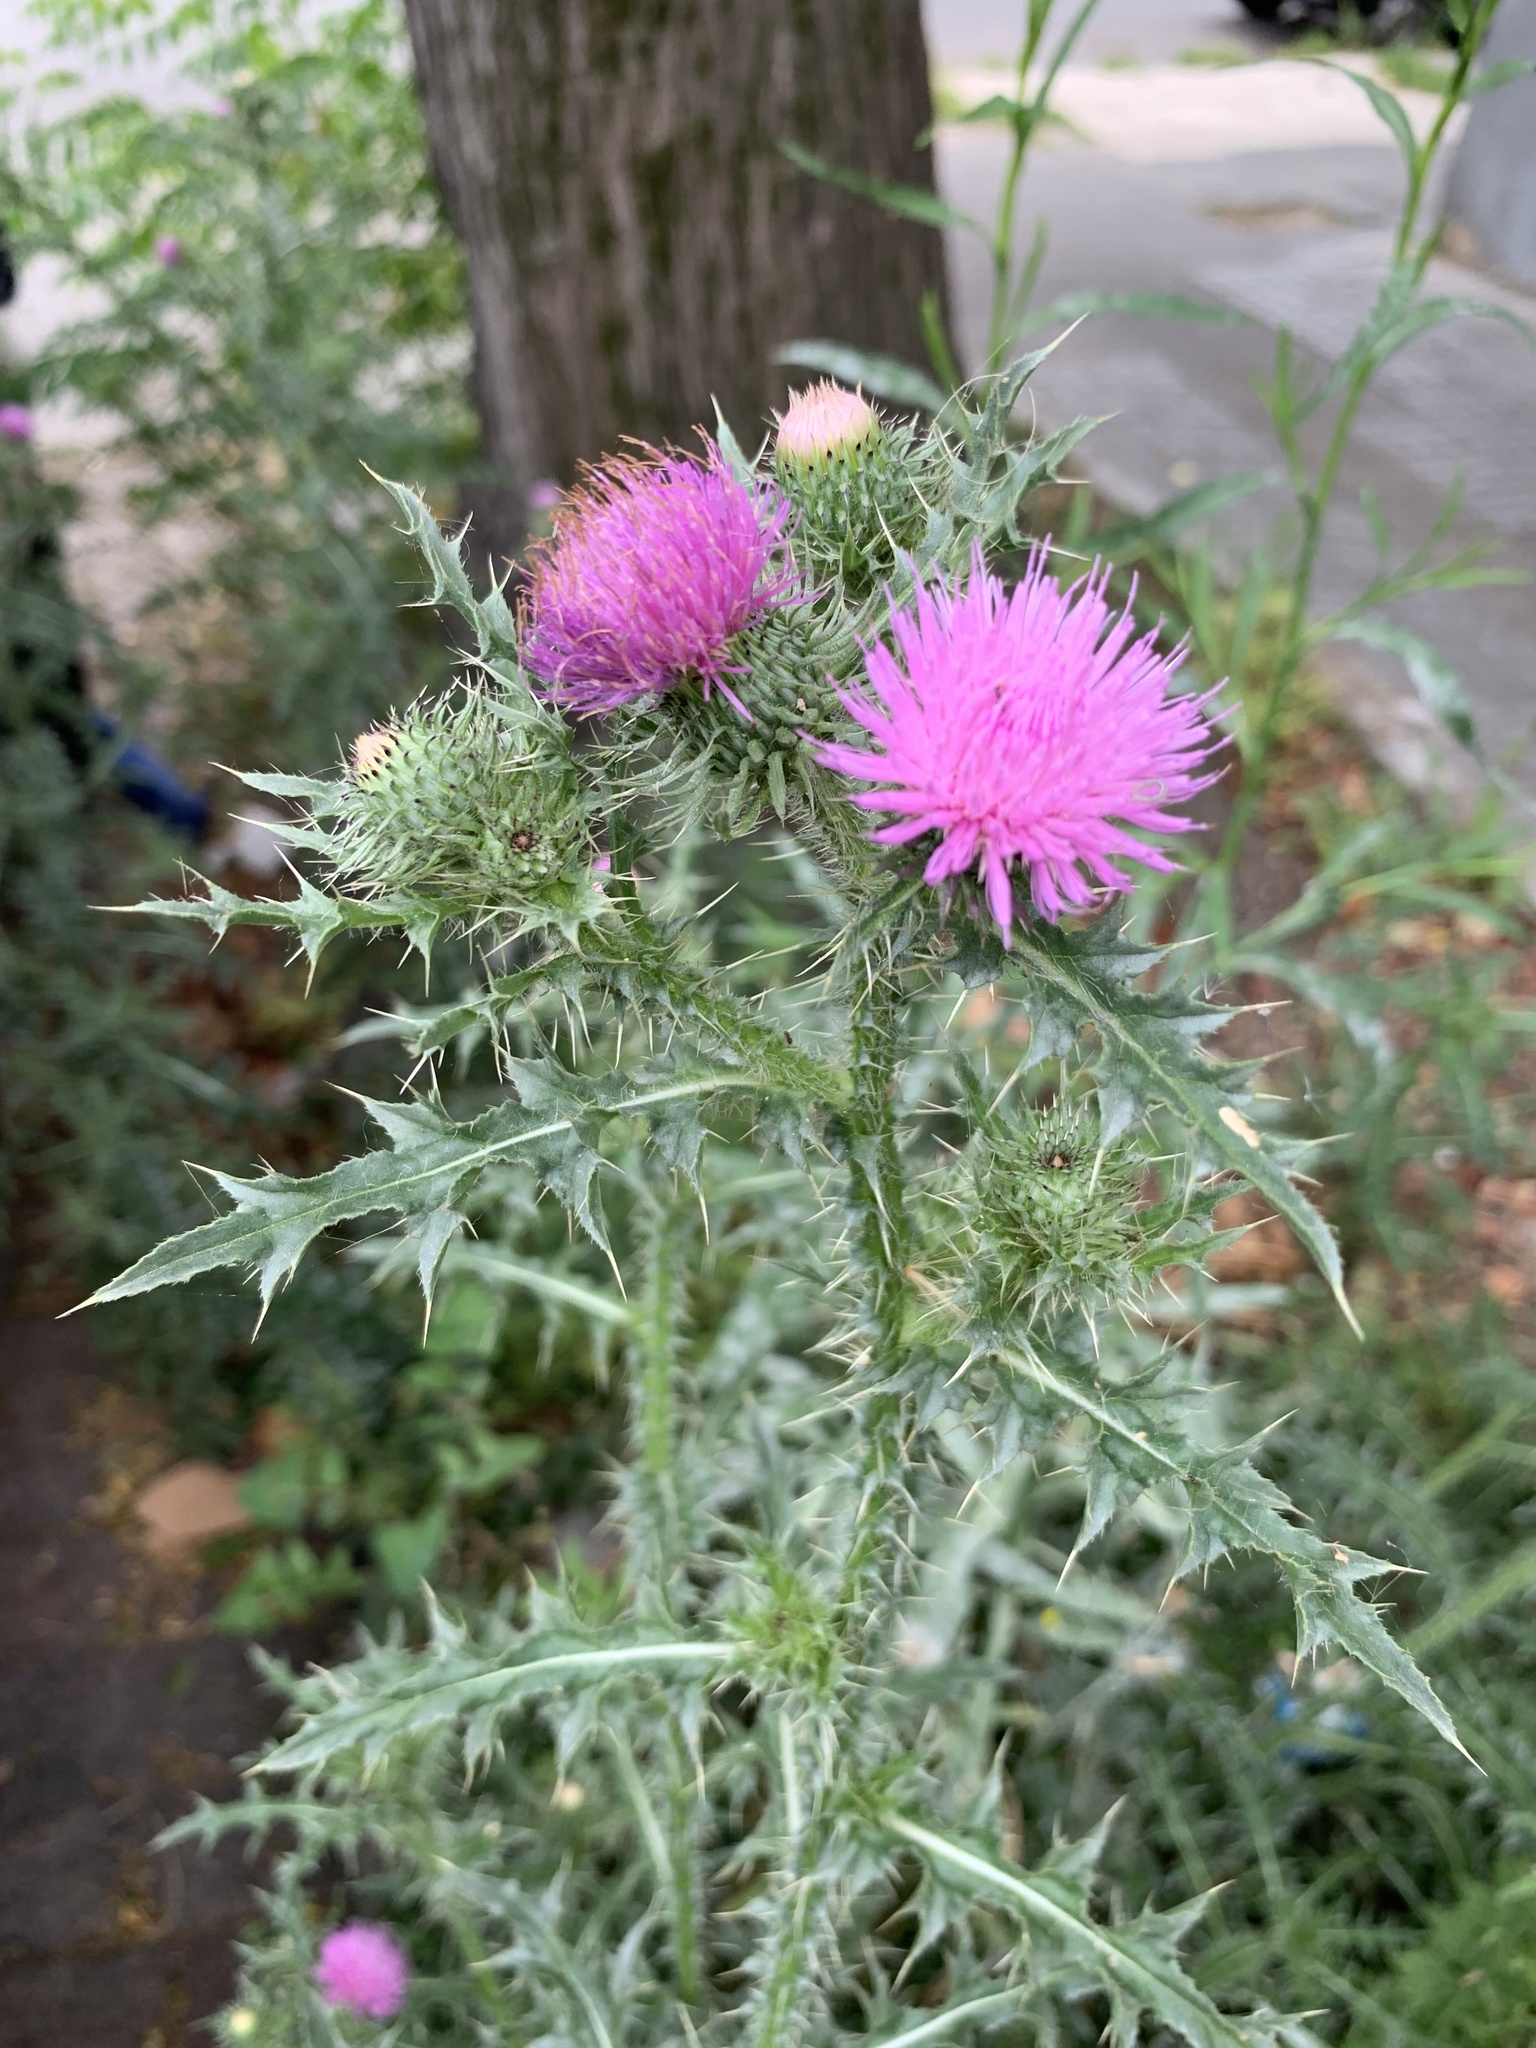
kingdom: Plantae
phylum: Tracheophyta
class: Magnoliopsida
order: Asterales
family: Asteraceae
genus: Carduus
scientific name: Carduus acanthoides
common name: Plumeless thistle
